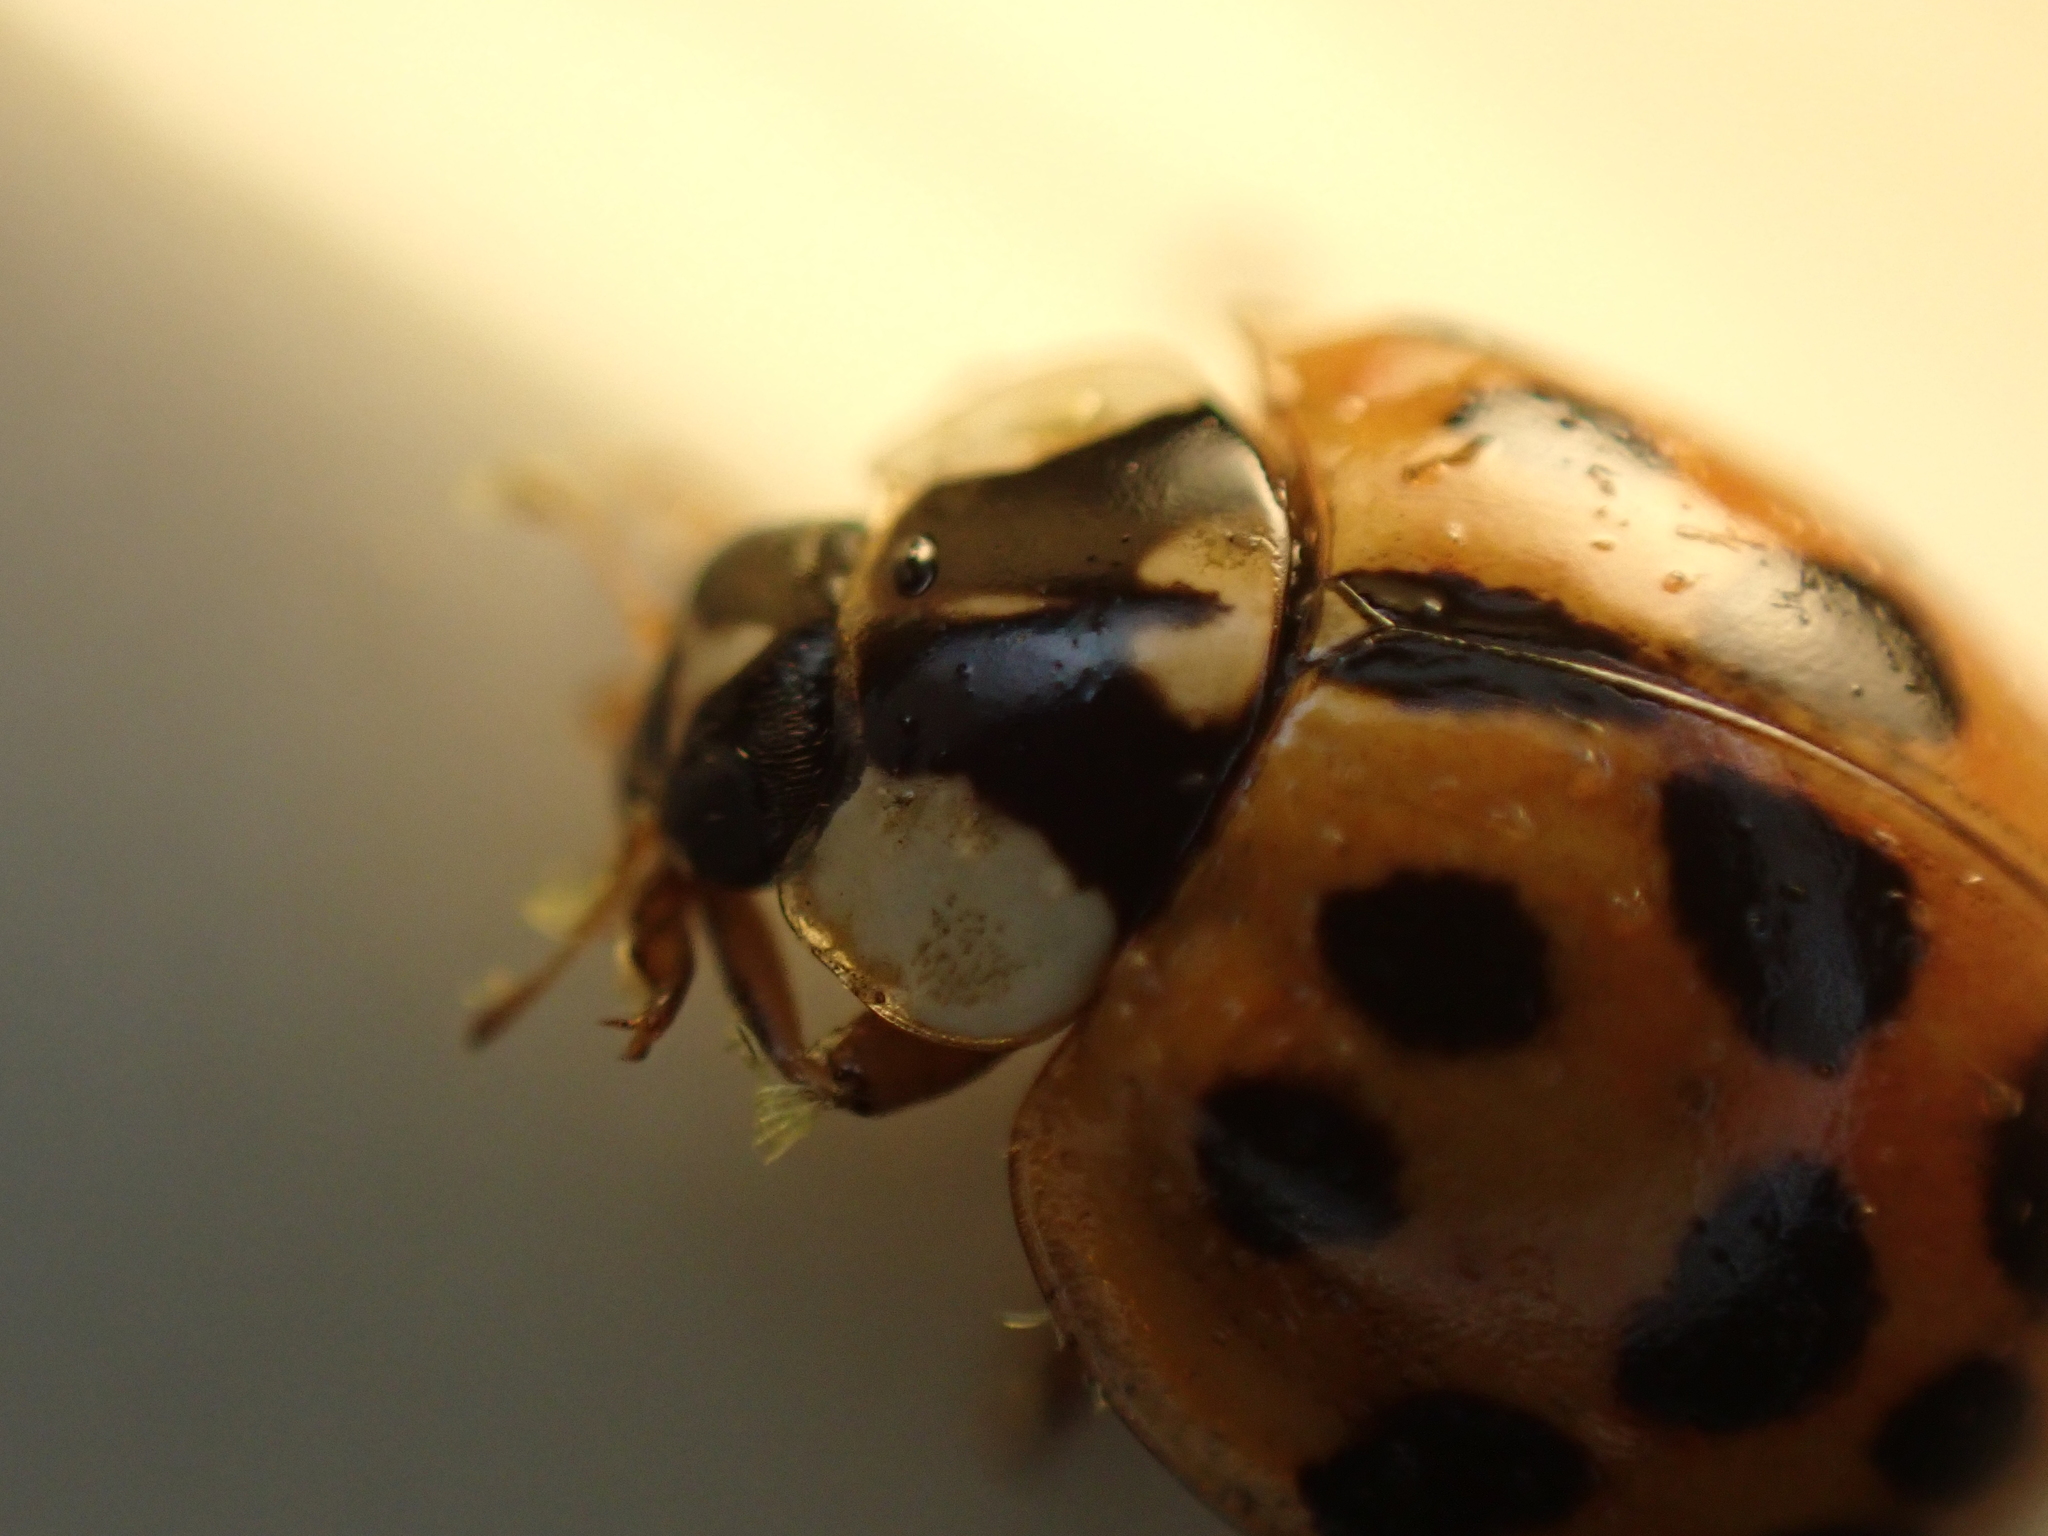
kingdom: Fungi
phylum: Ascomycota
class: Laboulbeniomycetes
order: Laboulbeniales
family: Laboulbeniaceae
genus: Hesperomyces
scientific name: Hesperomyces harmoniae
